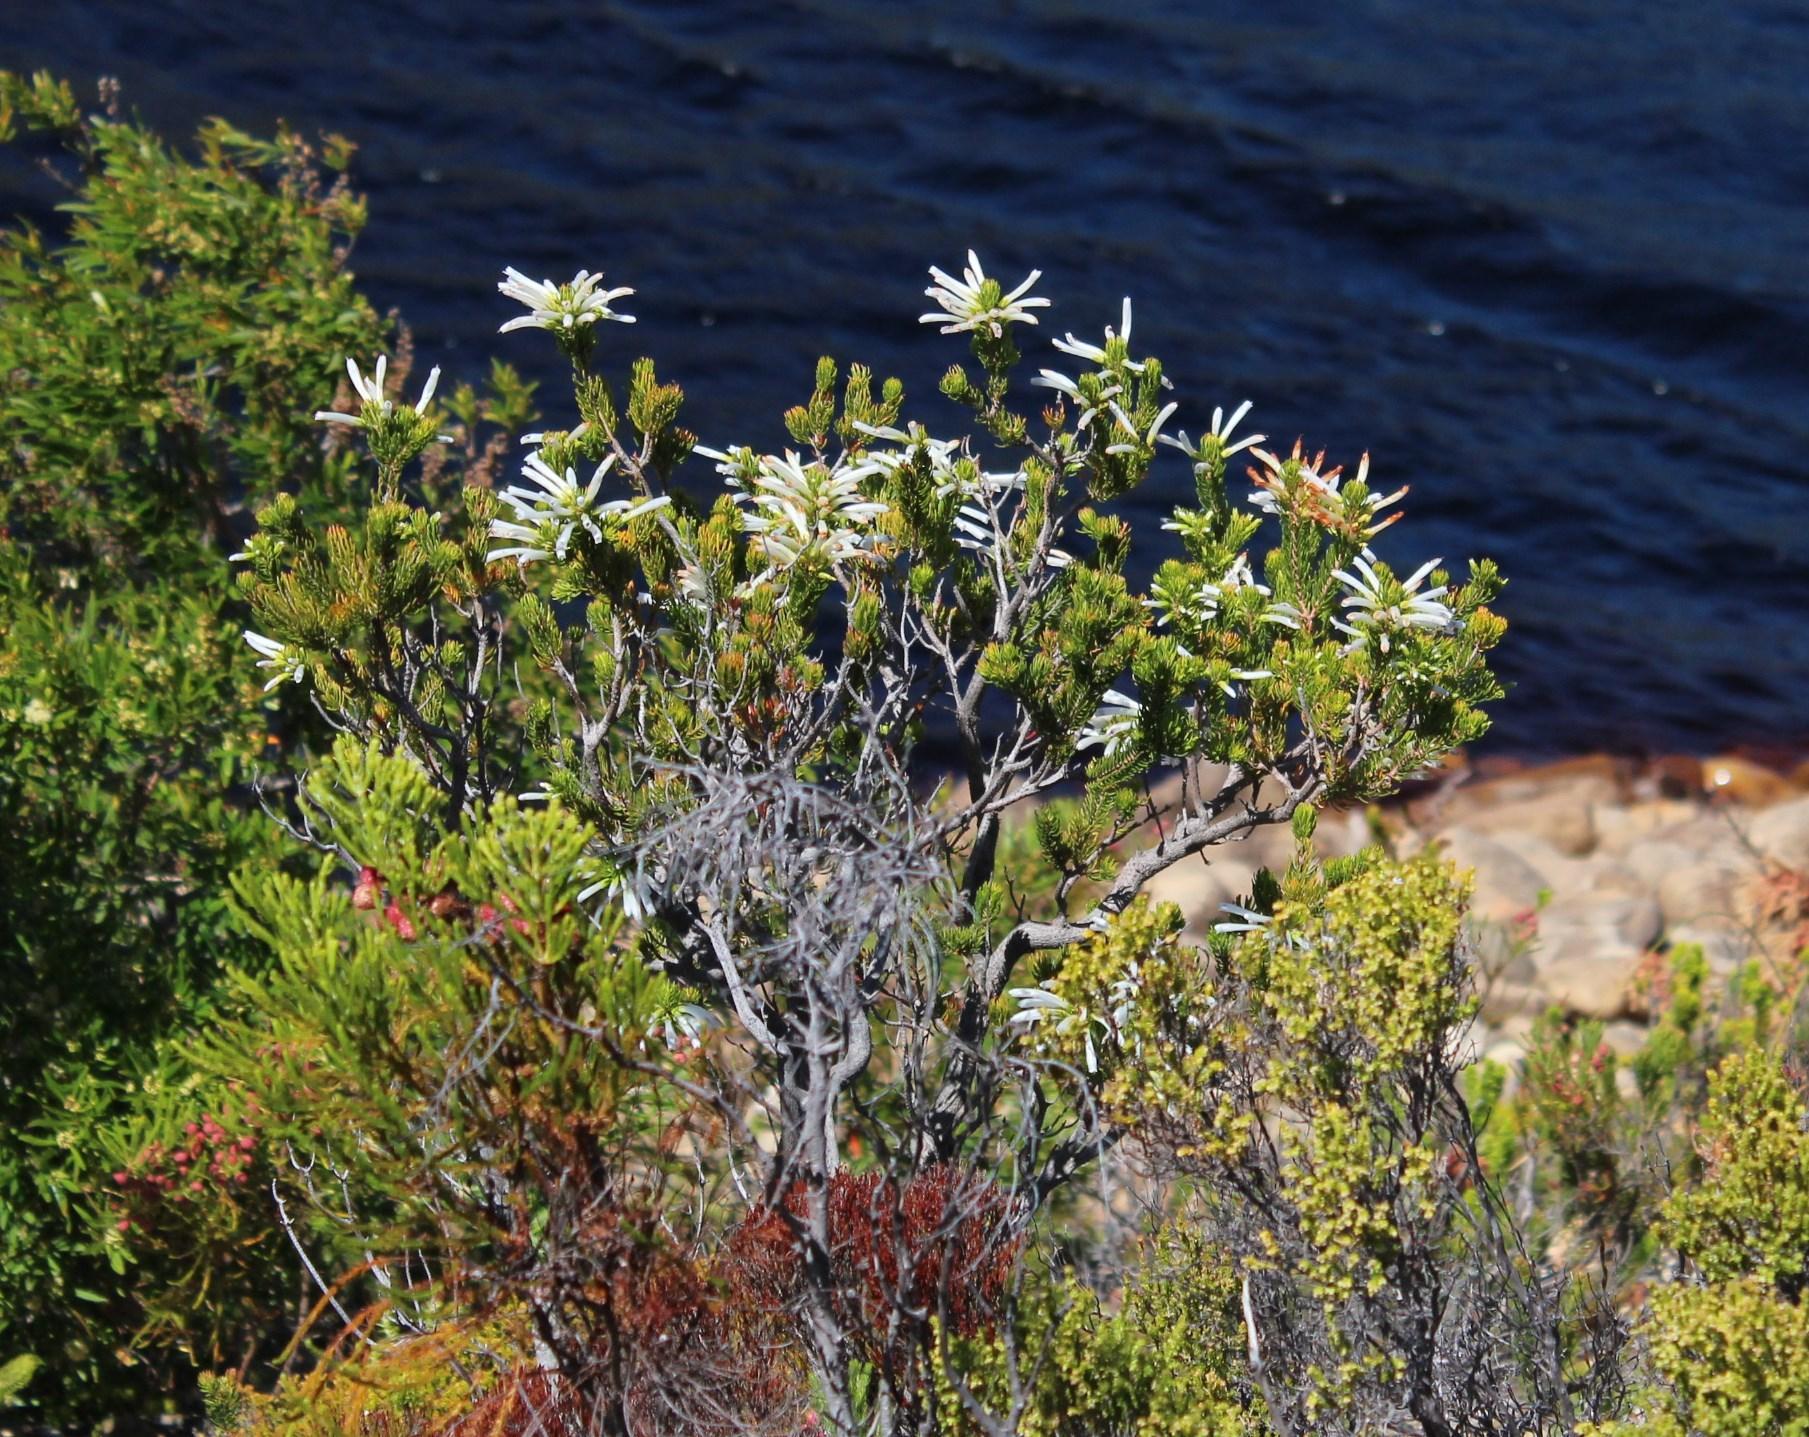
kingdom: Plantae
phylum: Tracheophyta
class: Magnoliopsida
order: Ericales
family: Ericaceae
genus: Erica
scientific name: Erica thomae
